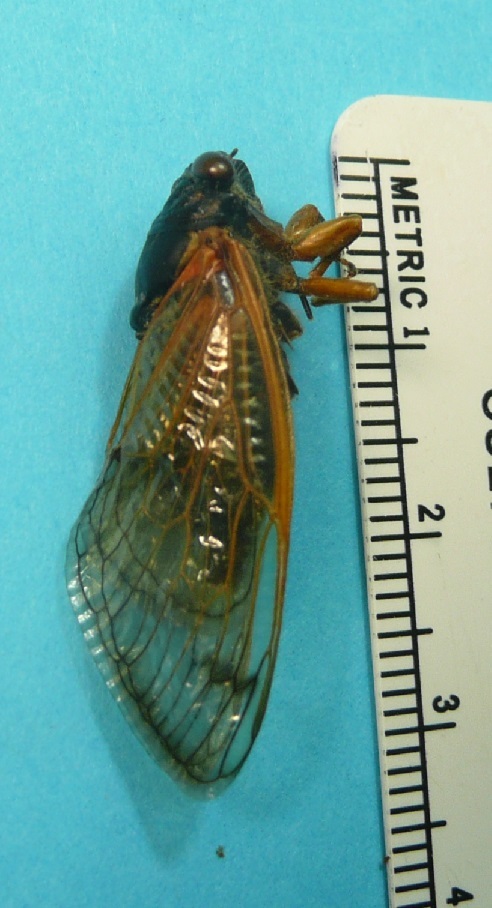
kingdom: Animalia
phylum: Arthropoda
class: Insecta
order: Hemiptera
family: Cicadidae
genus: Magicicada
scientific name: Magicicada tredecula
